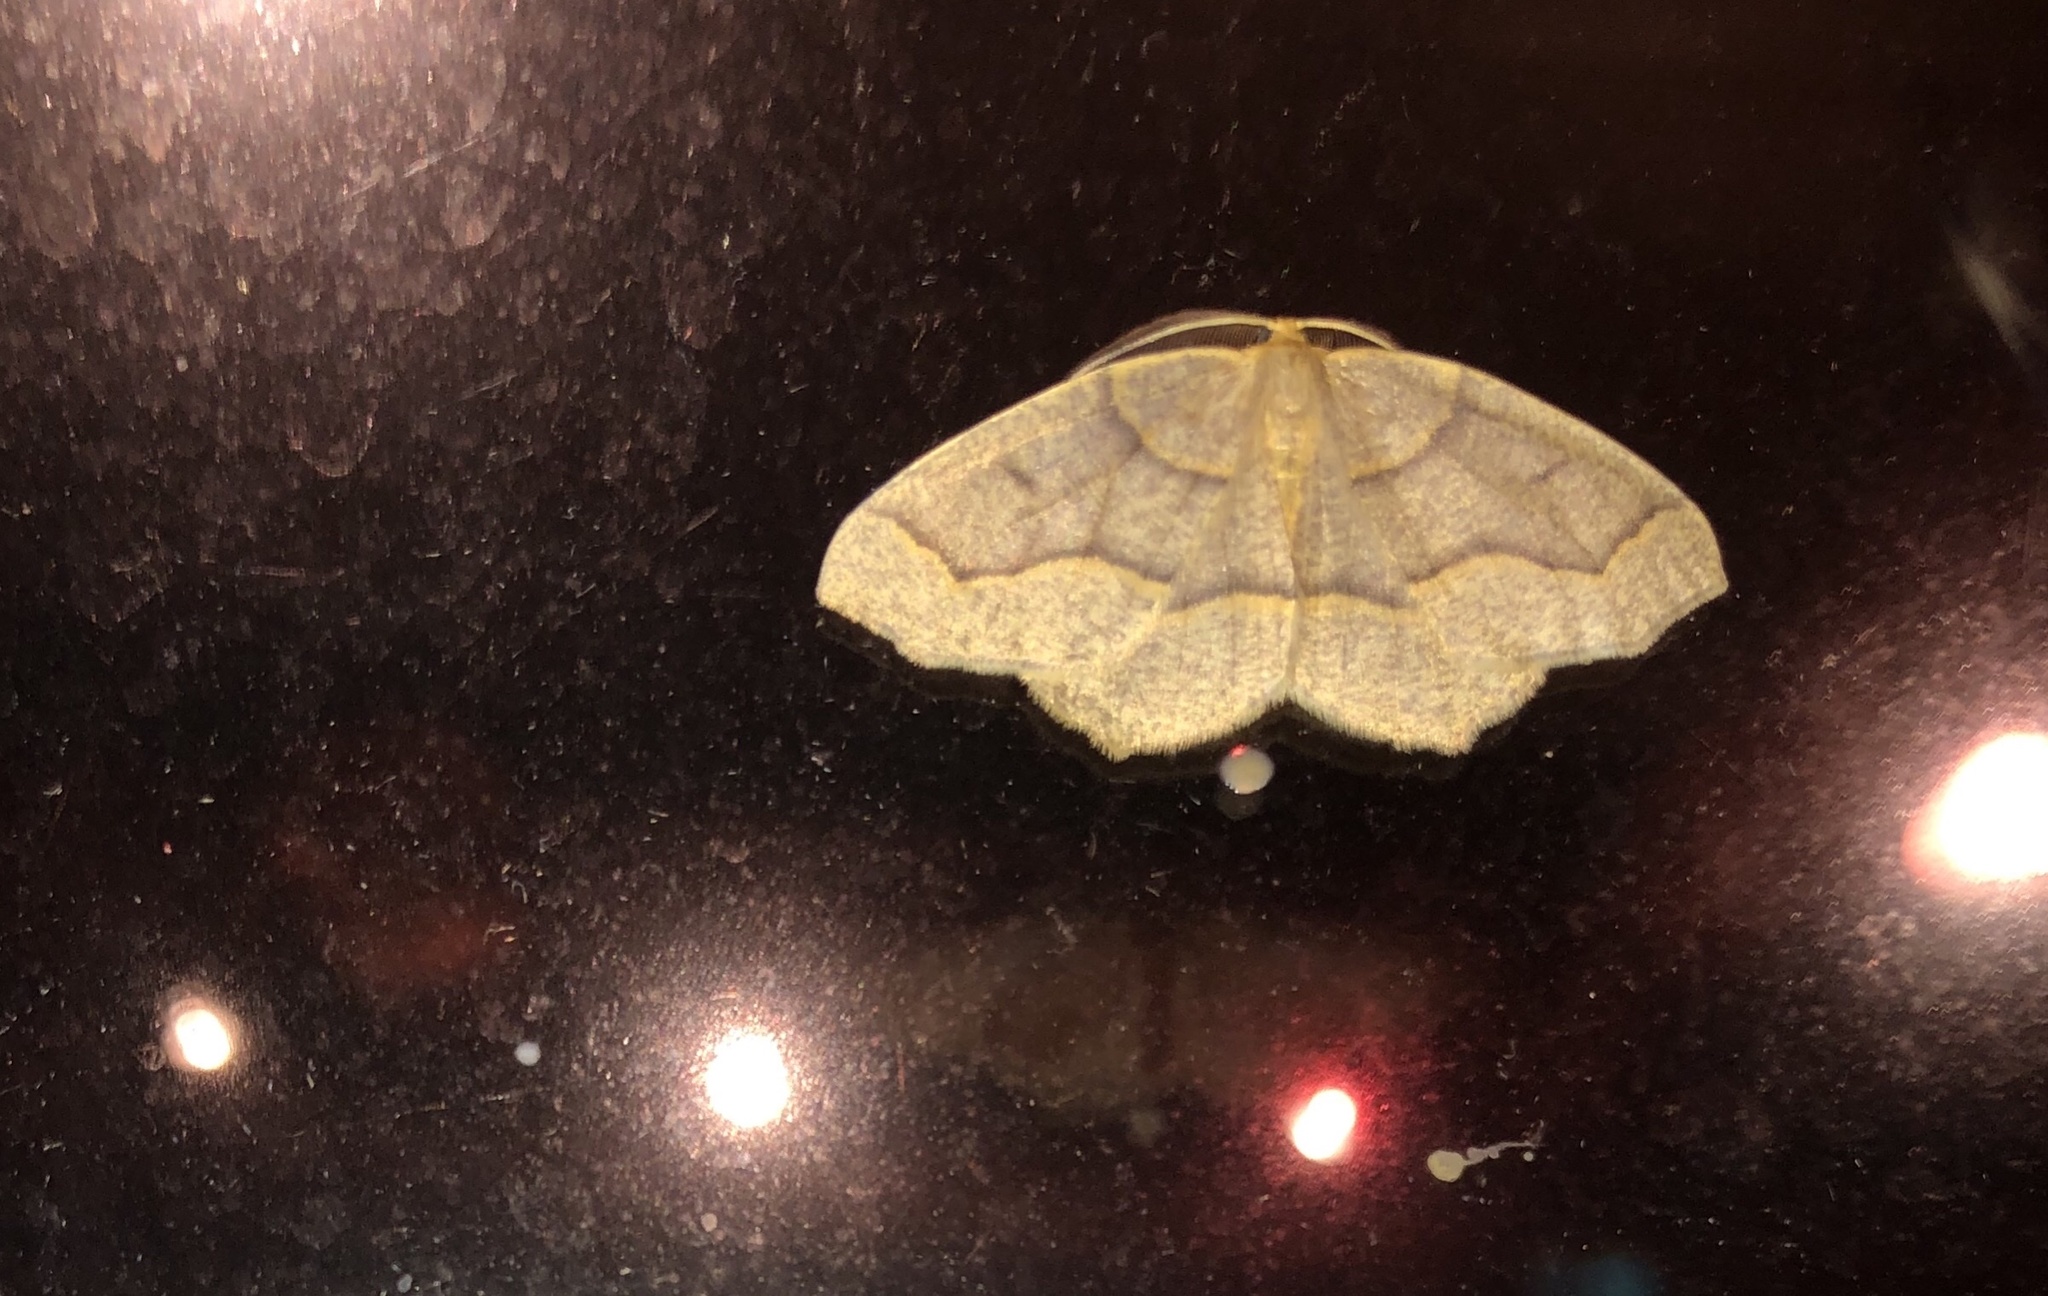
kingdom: Animalia
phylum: Arthropoda
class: Insecta
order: Lepidoptera
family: Geometridae
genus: Lambdina
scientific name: Lambdina fiscellaria
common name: Hemlock looper
